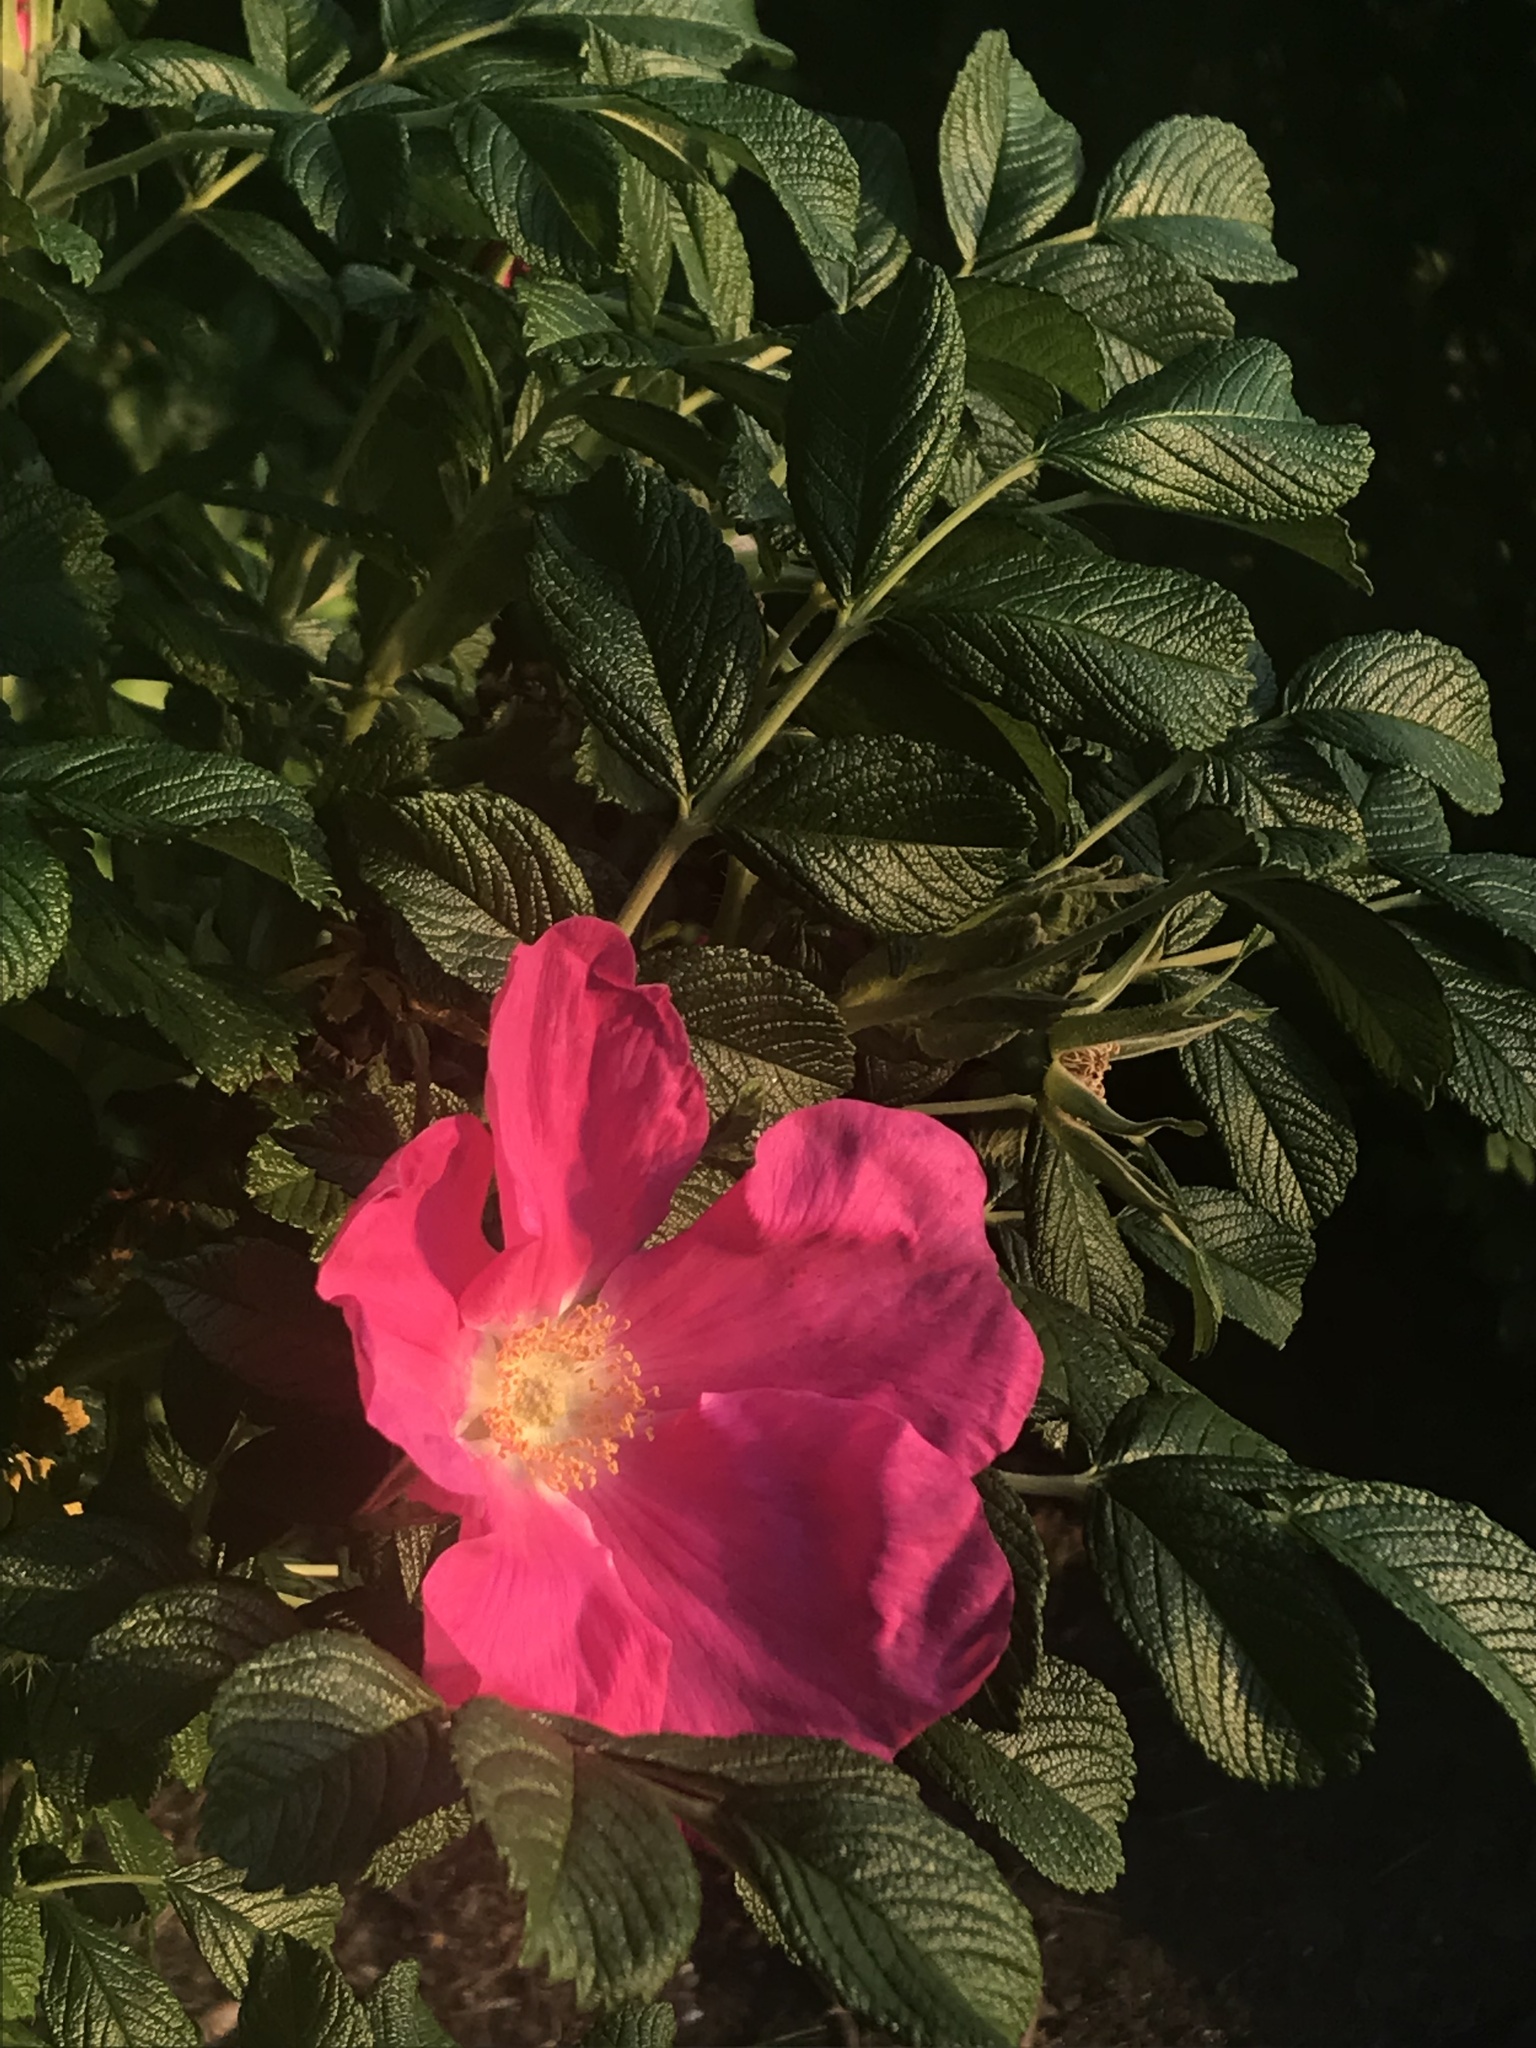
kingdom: Plantae
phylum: Tracheophyta
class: Magnoliopsida
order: Rosales
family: Rosaceae
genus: Rosa
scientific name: Rosa rugosa
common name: Japanese rose
